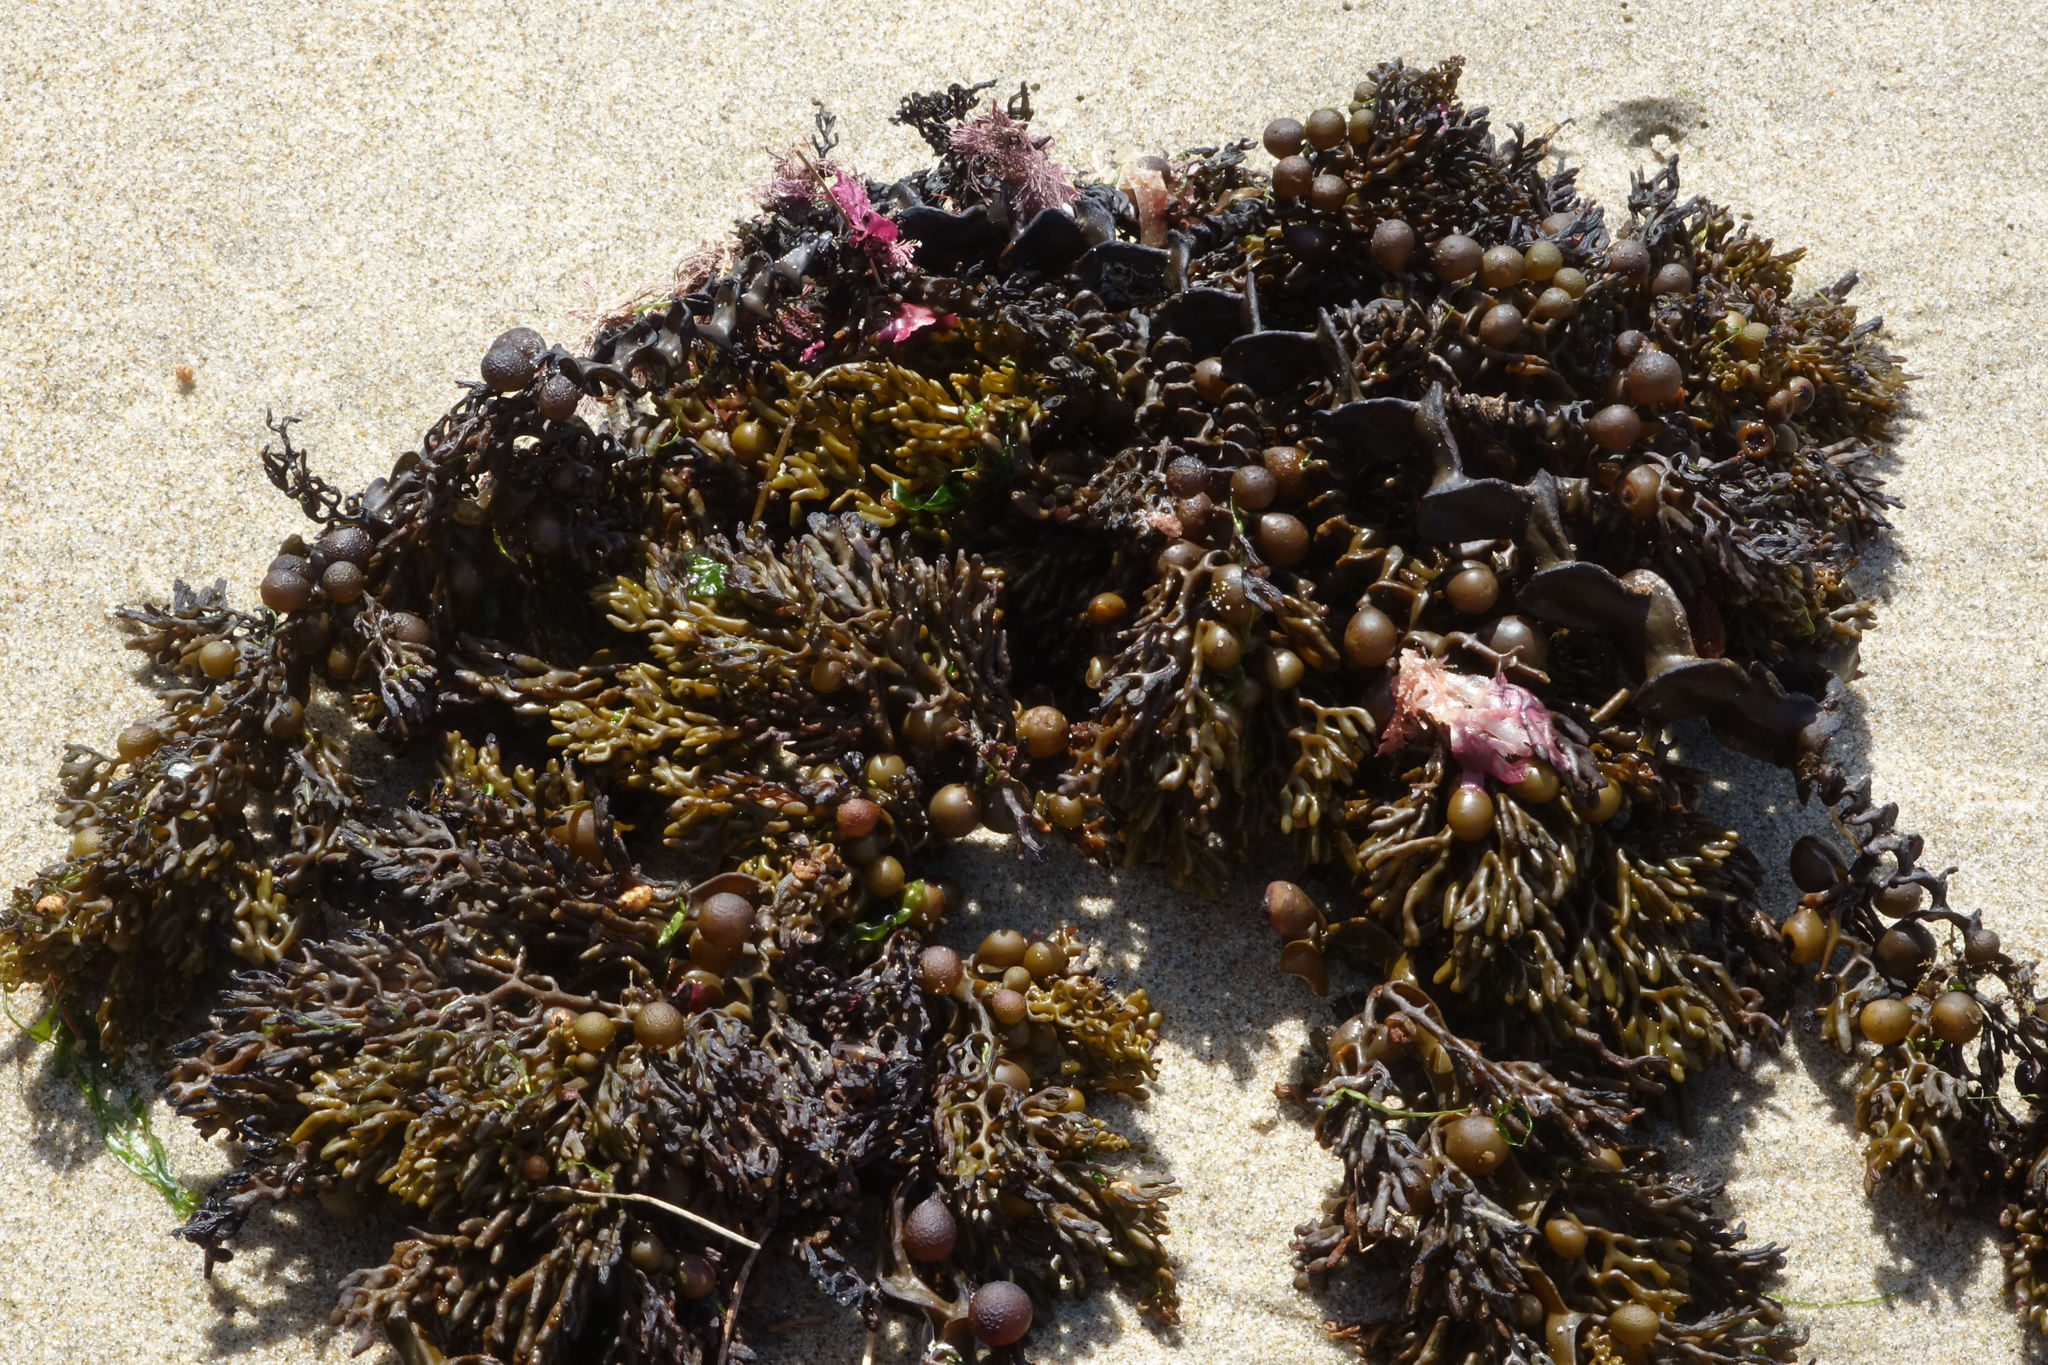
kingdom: Chromista
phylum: Ochrophyta
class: Phaeophyceae
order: Fucales
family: Sargassaceae
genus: Cystophora
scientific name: Cystophora scalaris
